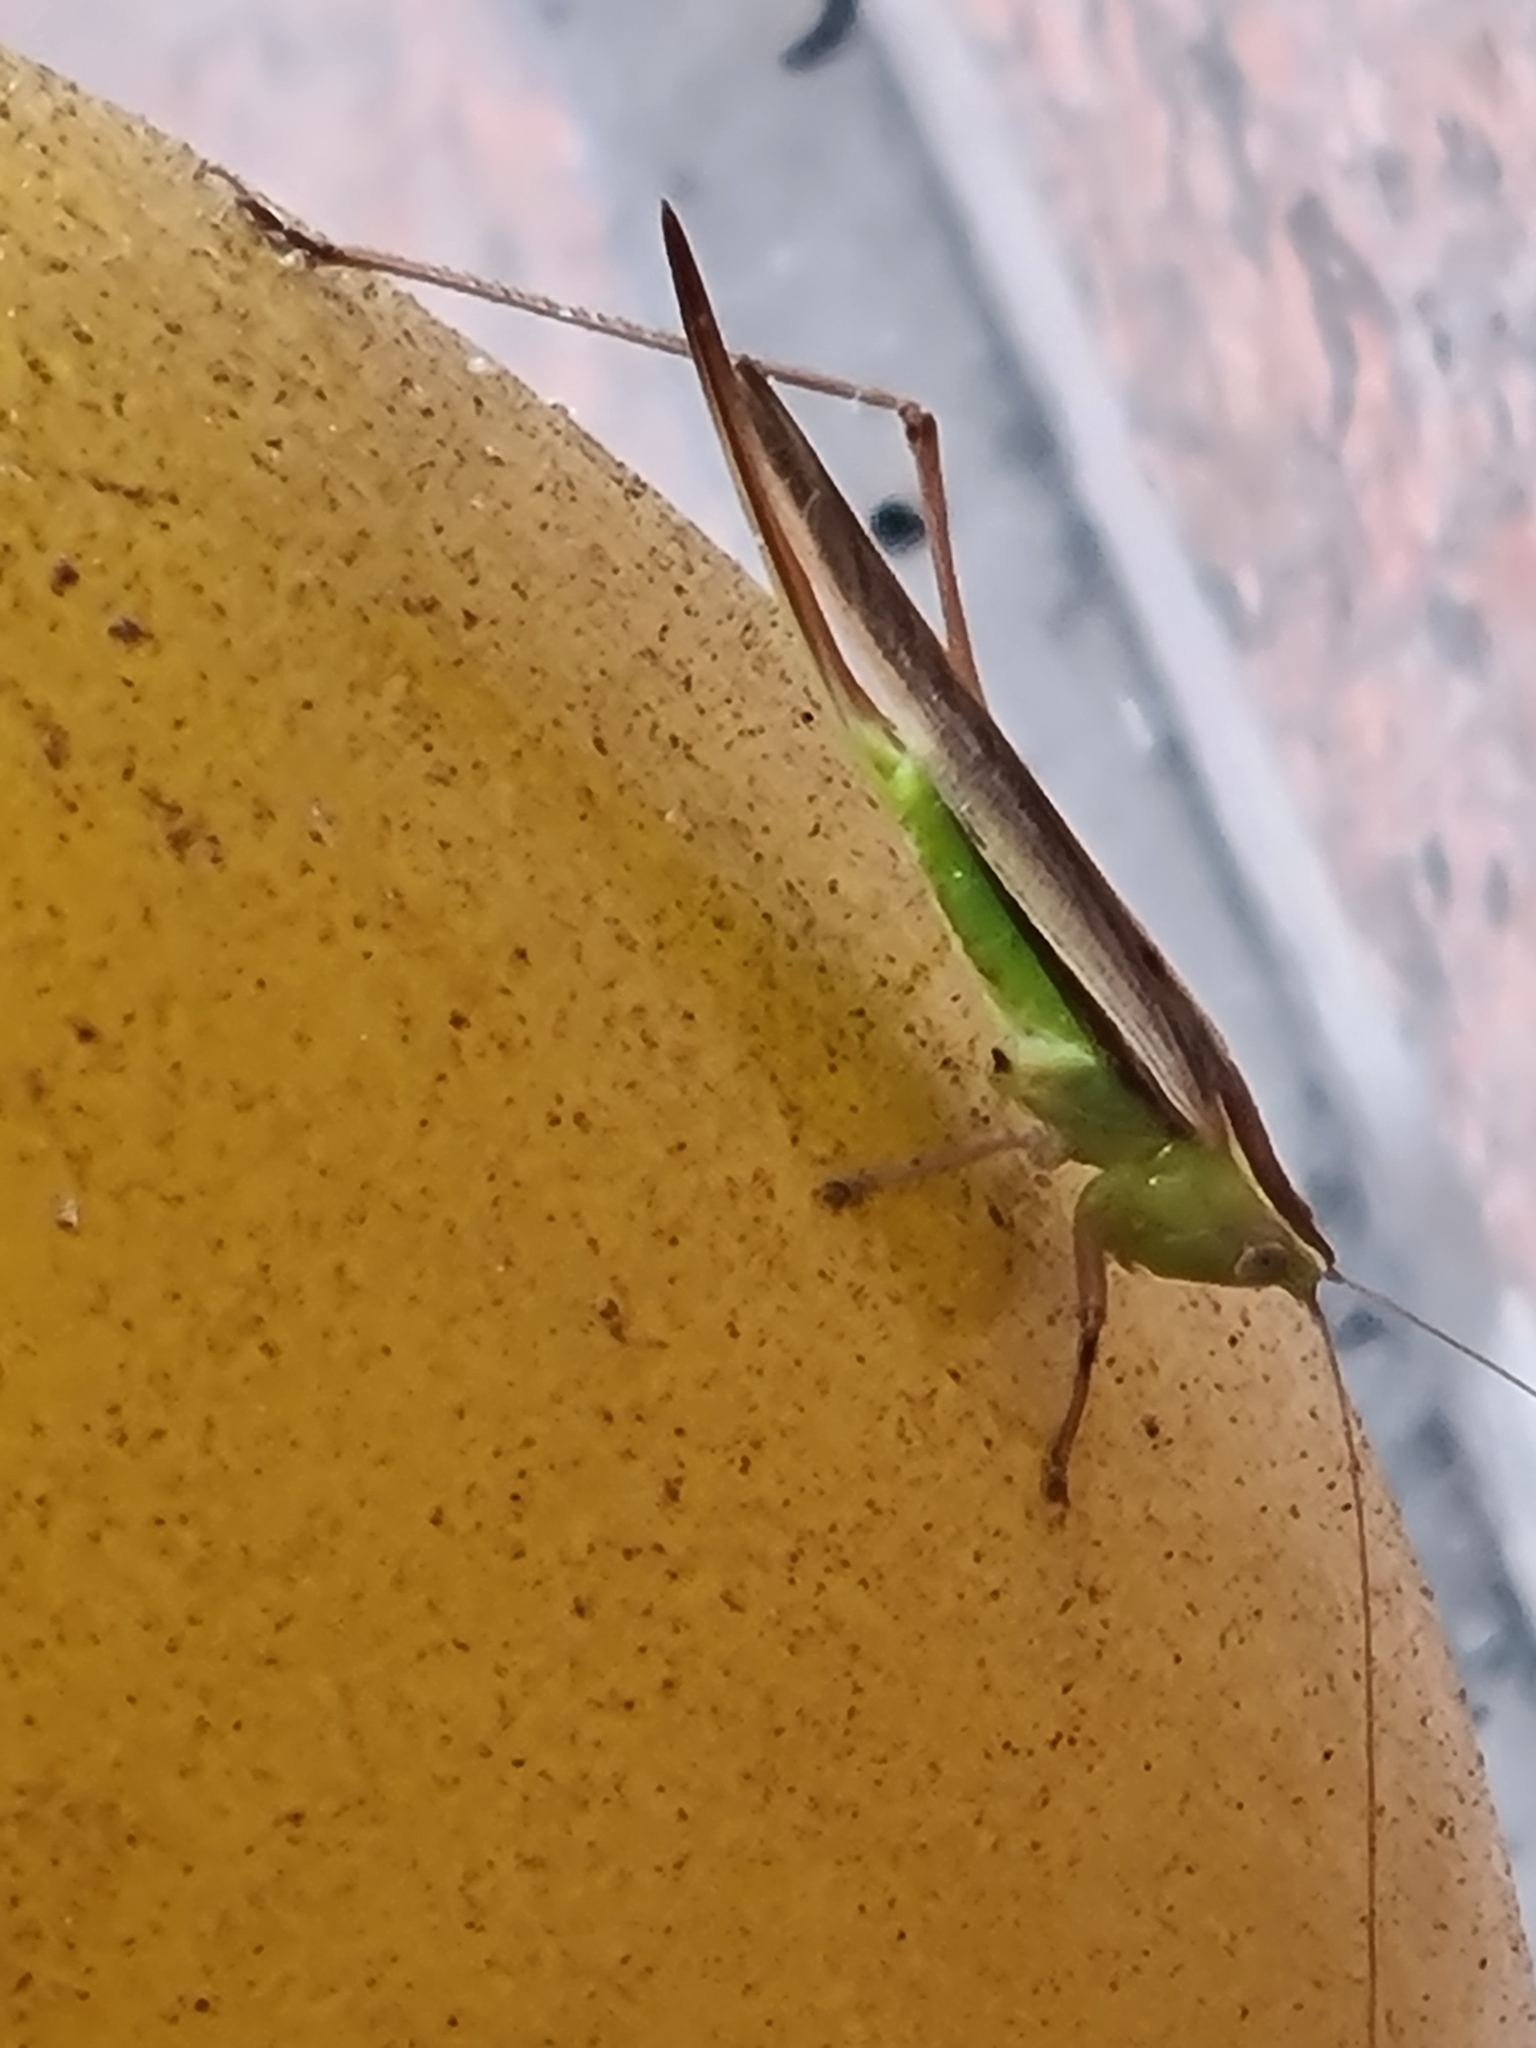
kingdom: Animalia
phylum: Arthropoda
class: Insecta
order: Orthoptera
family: Tettigoniidae
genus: Conocephalus
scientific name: Conocephalus albescens
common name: Whitish meadow katydid
